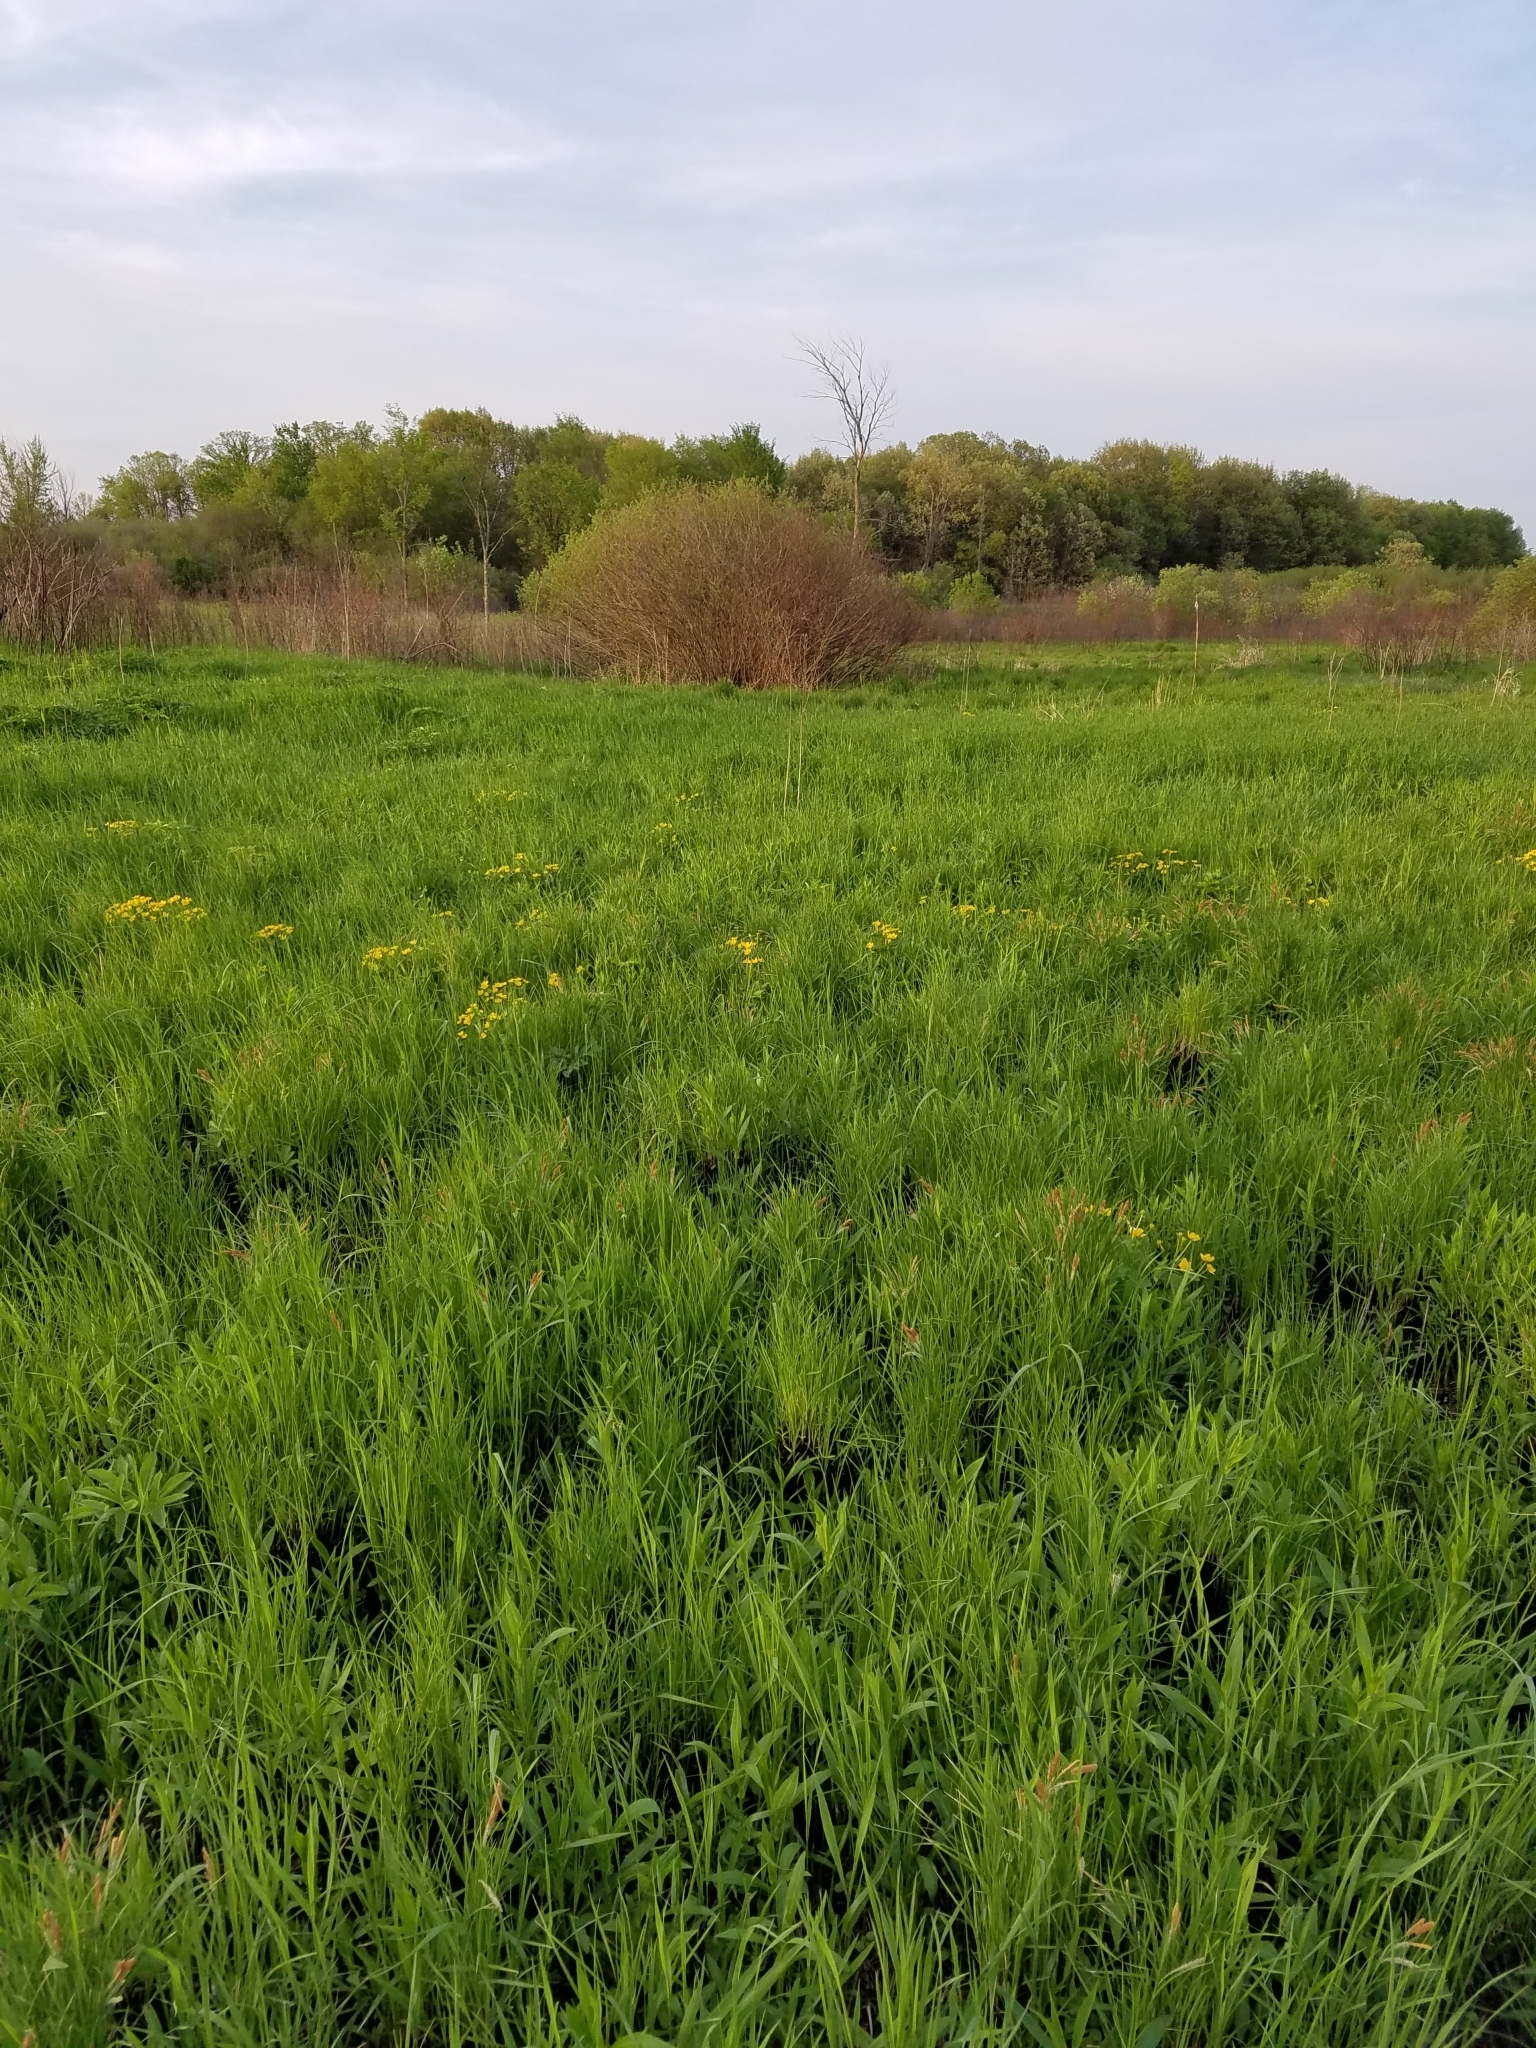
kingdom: Plantae
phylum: Tracheophyta
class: Magnoliopsida
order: Ranunculales
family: Ranunculaceae
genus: Caltha
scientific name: Caltha palustris
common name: Marsh marigold
